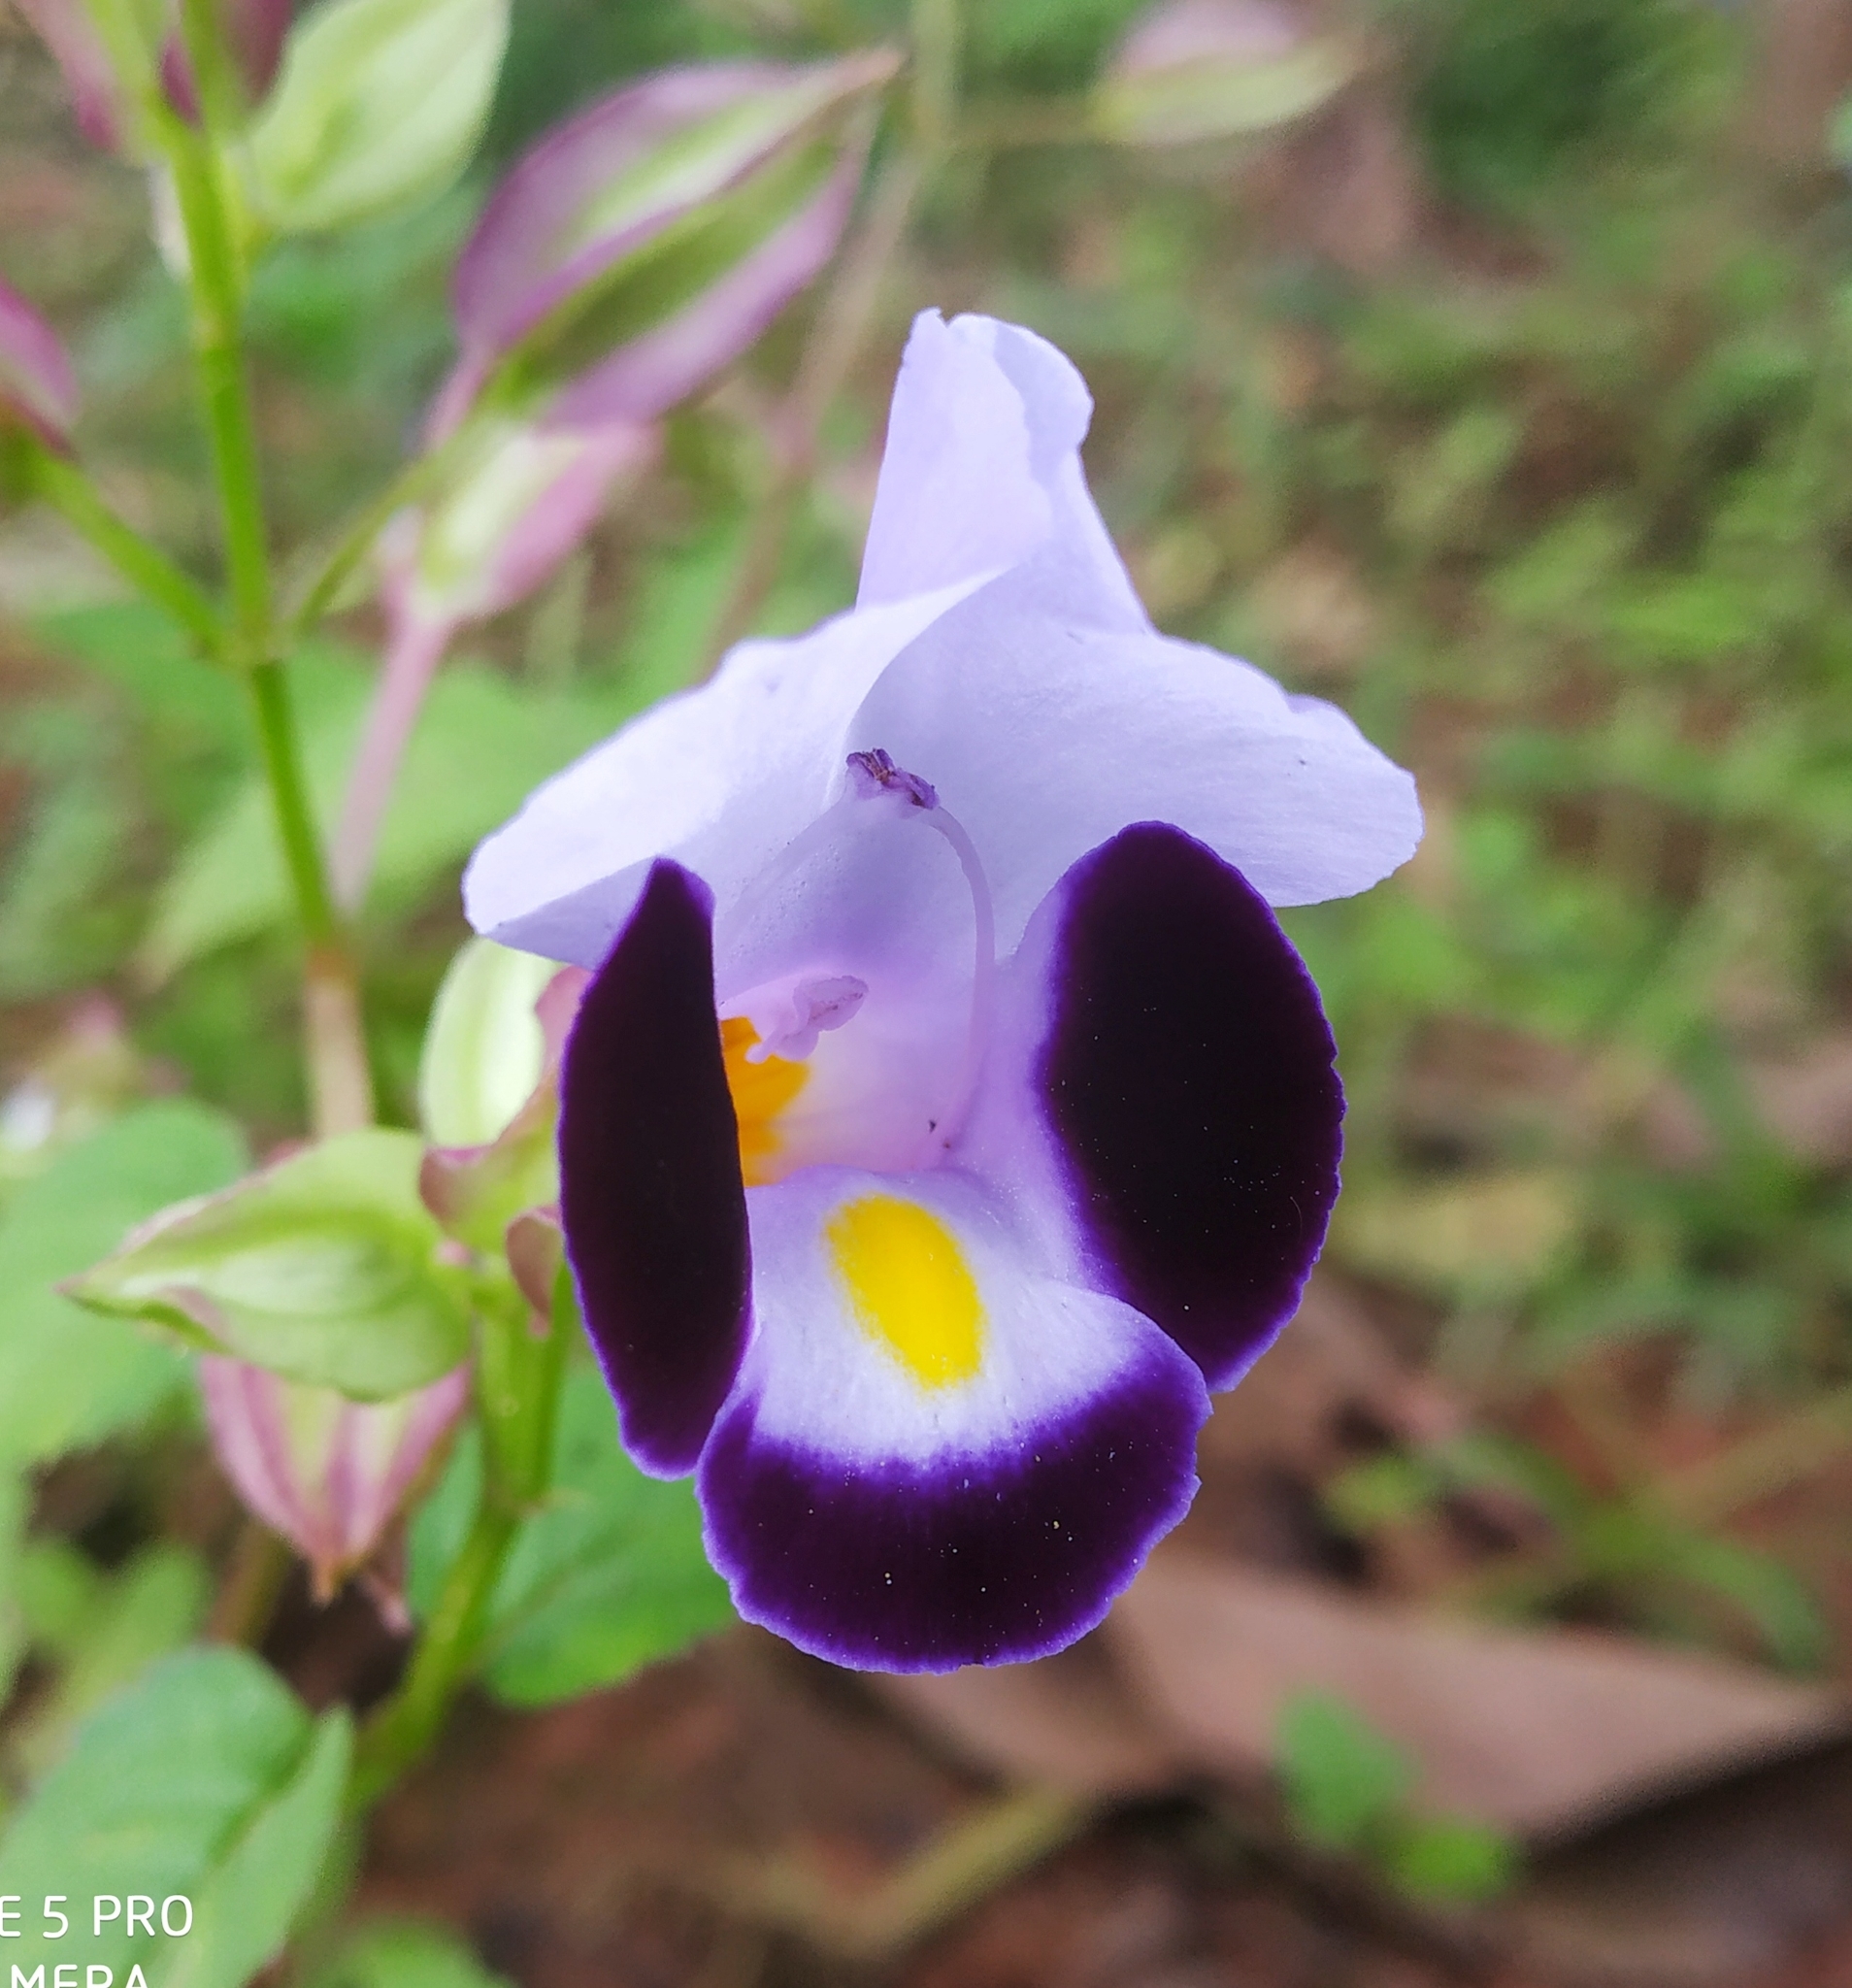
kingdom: Plantae
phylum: Tracheophyta
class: Magnoliopsida
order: Lamiales
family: Linderniaceae
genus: Torenia
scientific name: Torenia fournieri
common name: Bluewings
